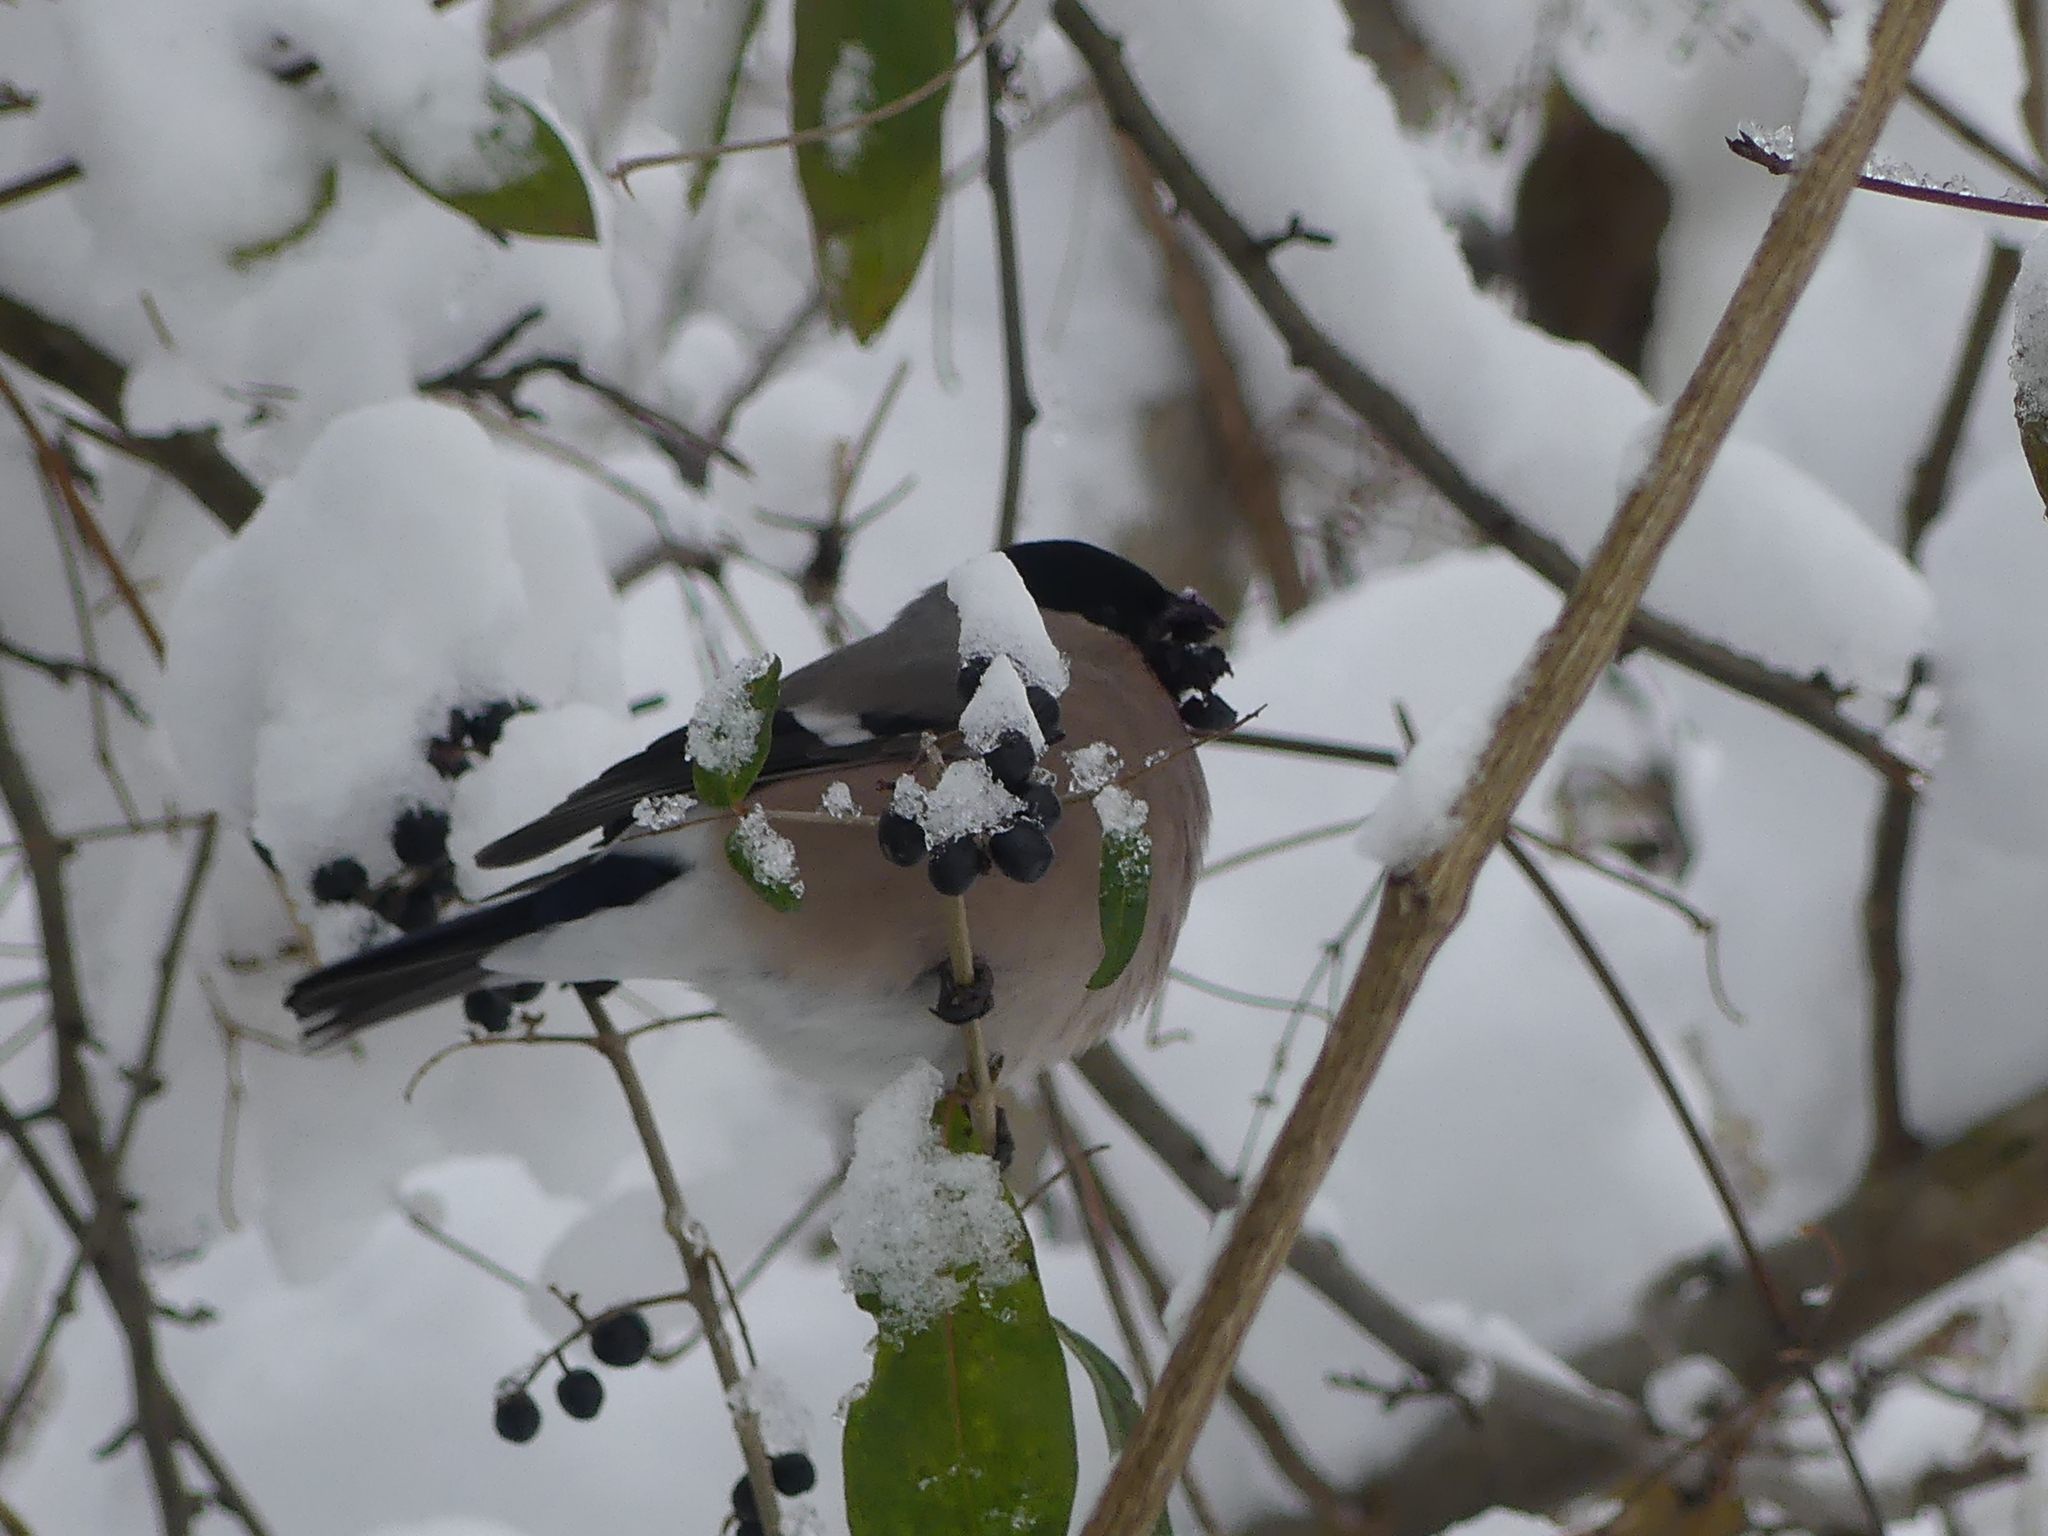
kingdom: Animalia
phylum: Chordata
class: Aves
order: Passeriformes
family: Fringillidae
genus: Pyrrhula
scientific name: Pyrrhula pyrrhula
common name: Eurasian bullfinch
